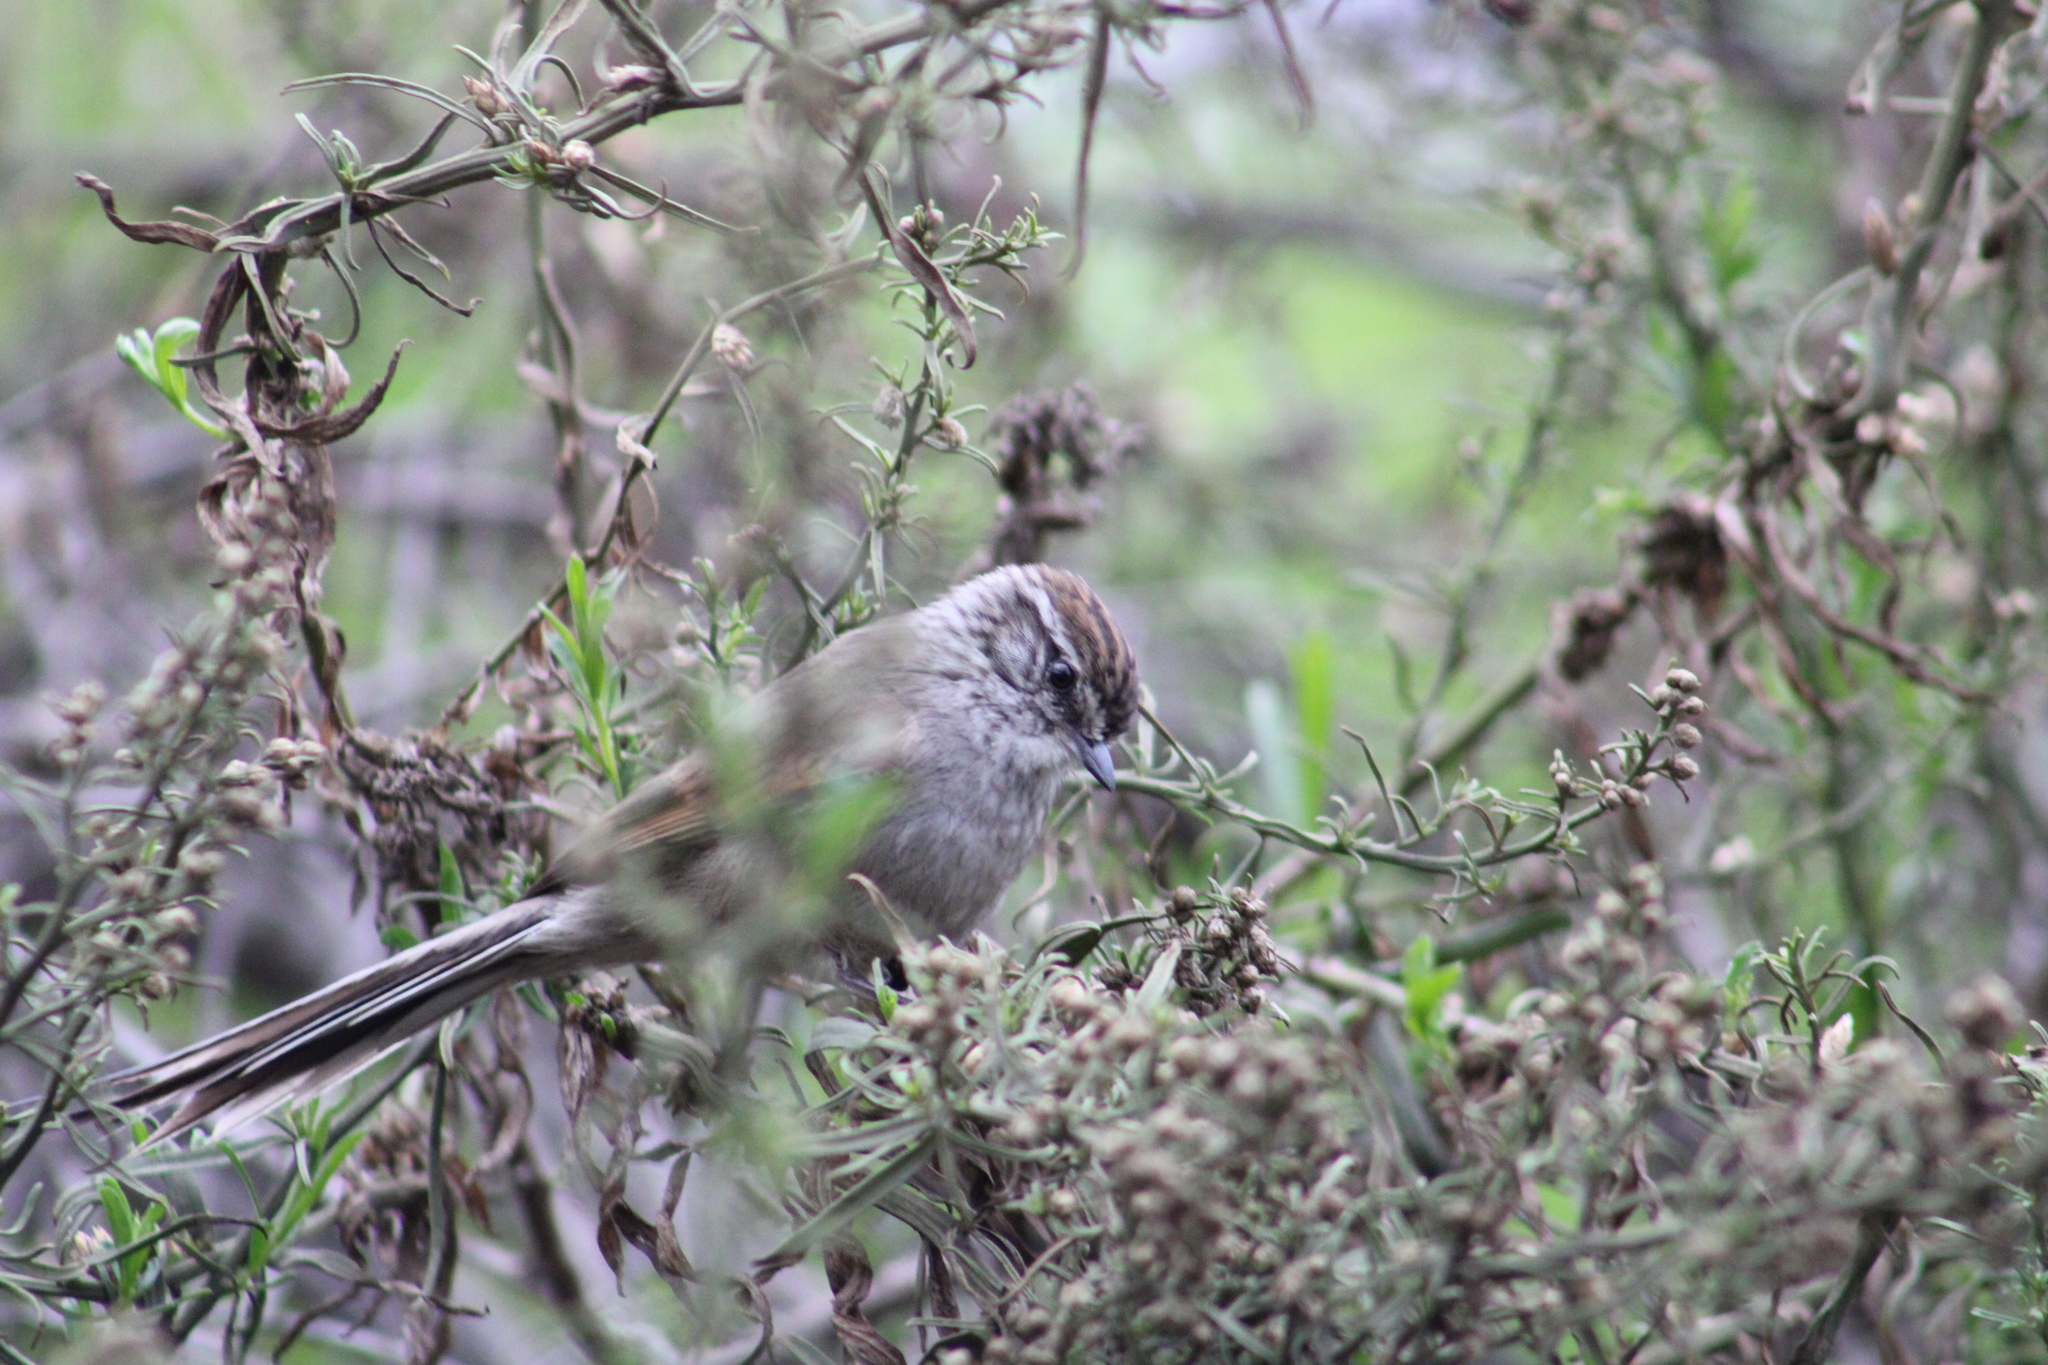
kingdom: Animalia
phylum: Chordata
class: Aves
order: Passeriformes
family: Furnariidae
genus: Leptasthenura
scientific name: Leptasthenura aegithaloides
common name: Plain-mantled tit-spinetail
